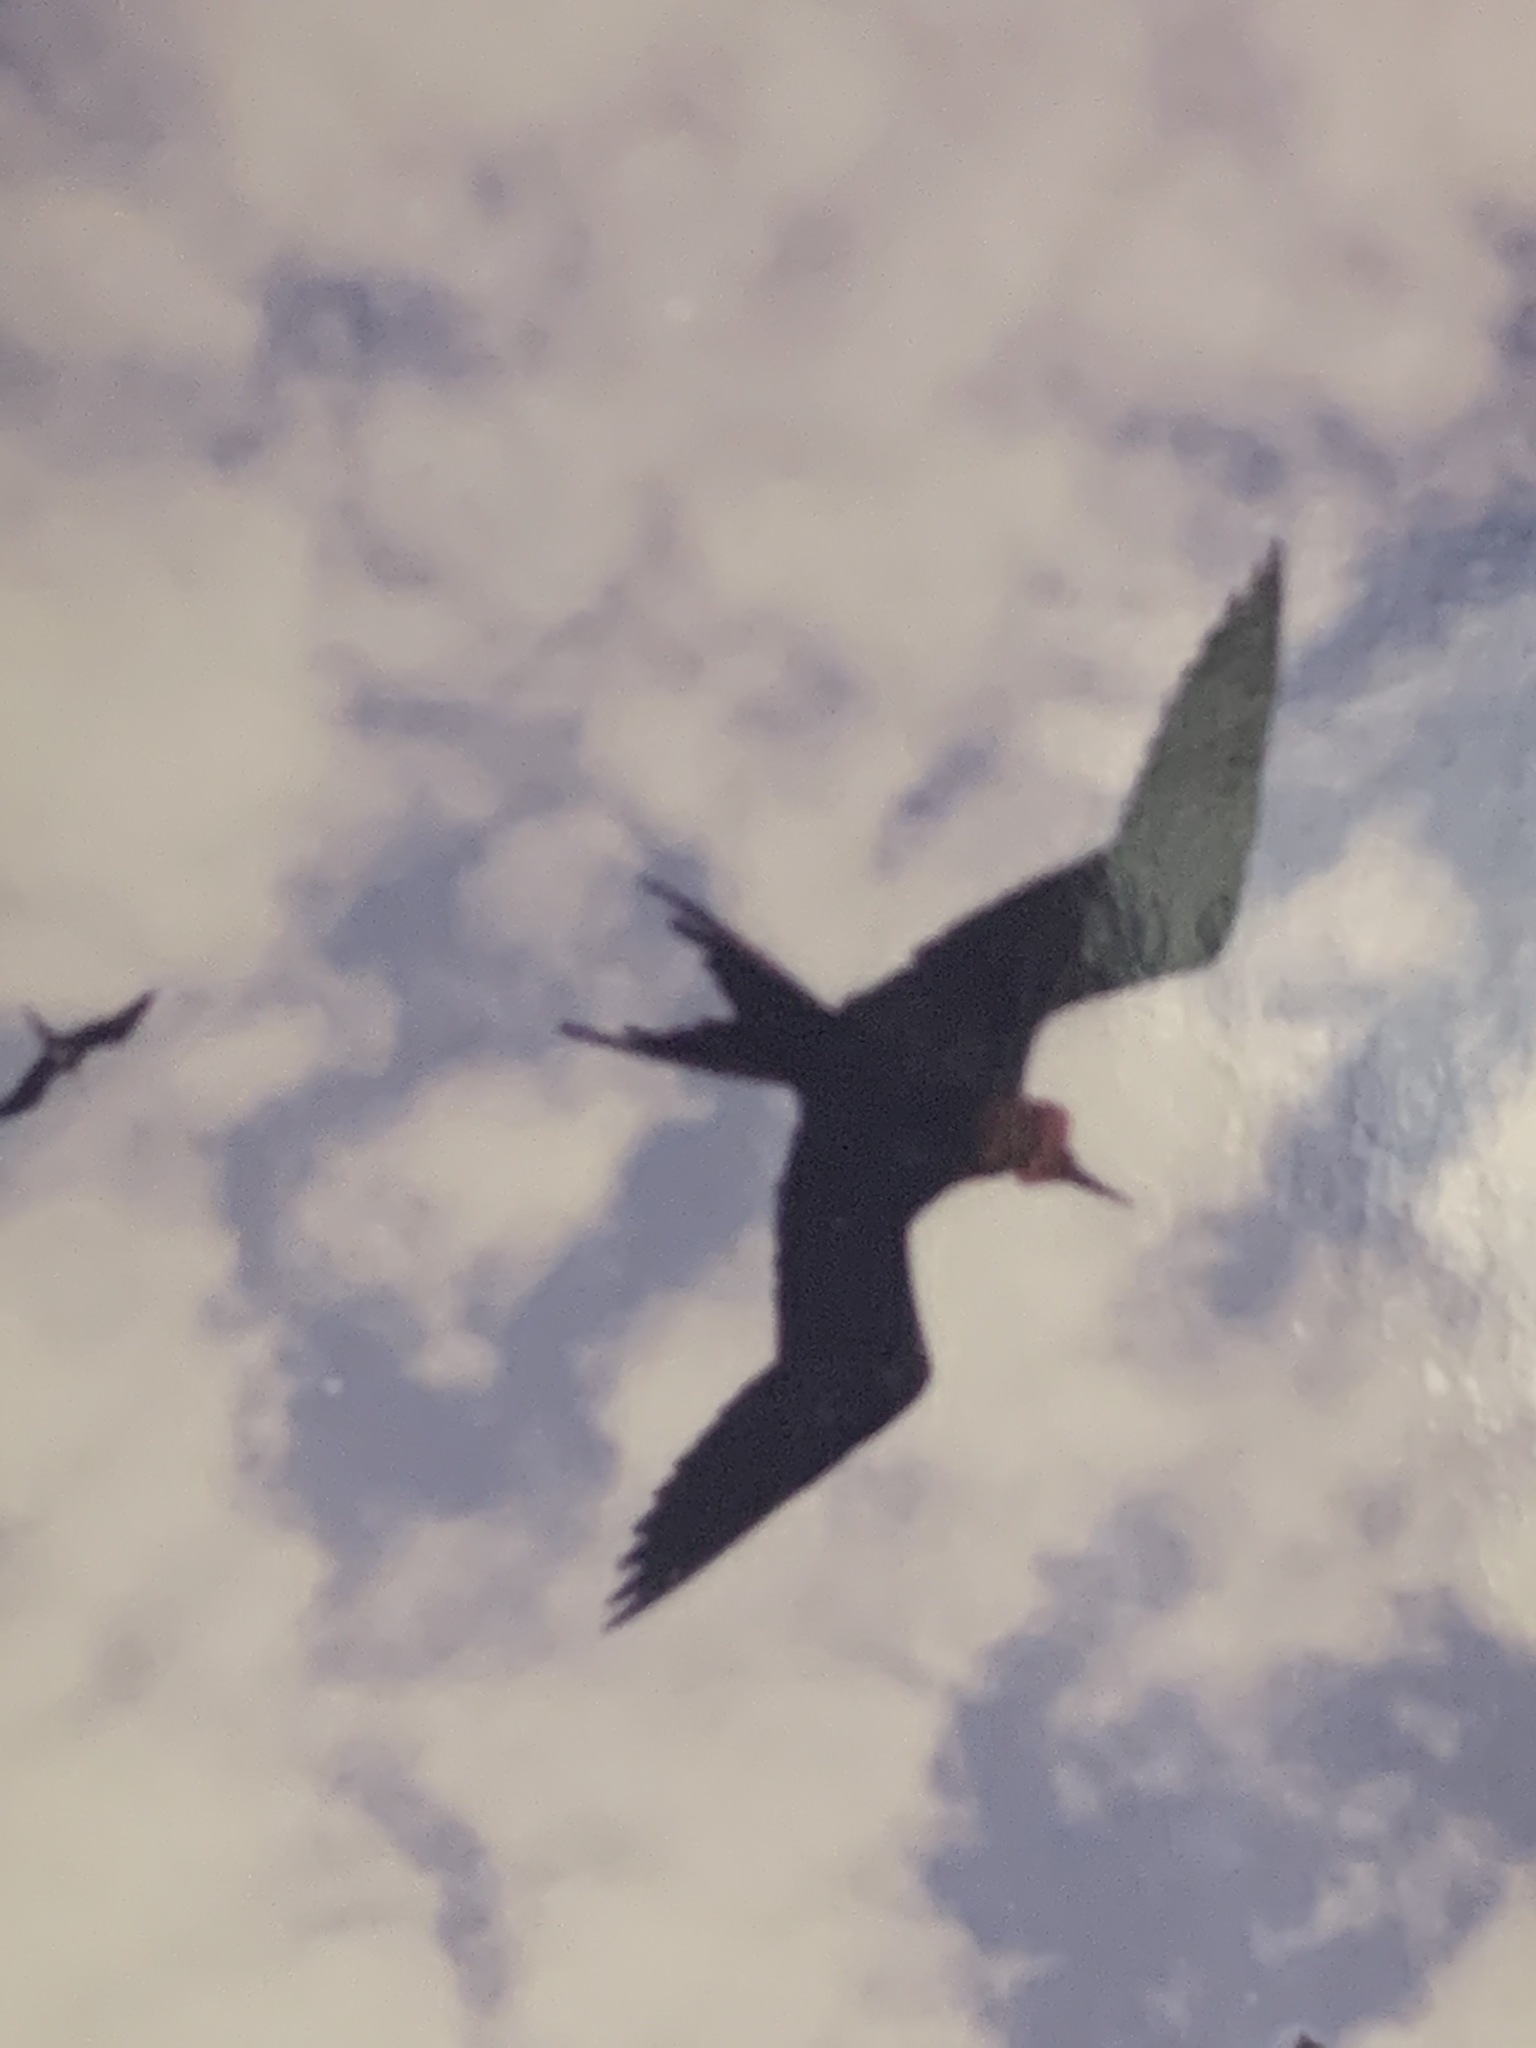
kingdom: Animalia
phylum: Chordata
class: Aves
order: Suliformes
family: Fregatidae
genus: Fregata
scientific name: Fregata minor
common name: Great frigatebird
